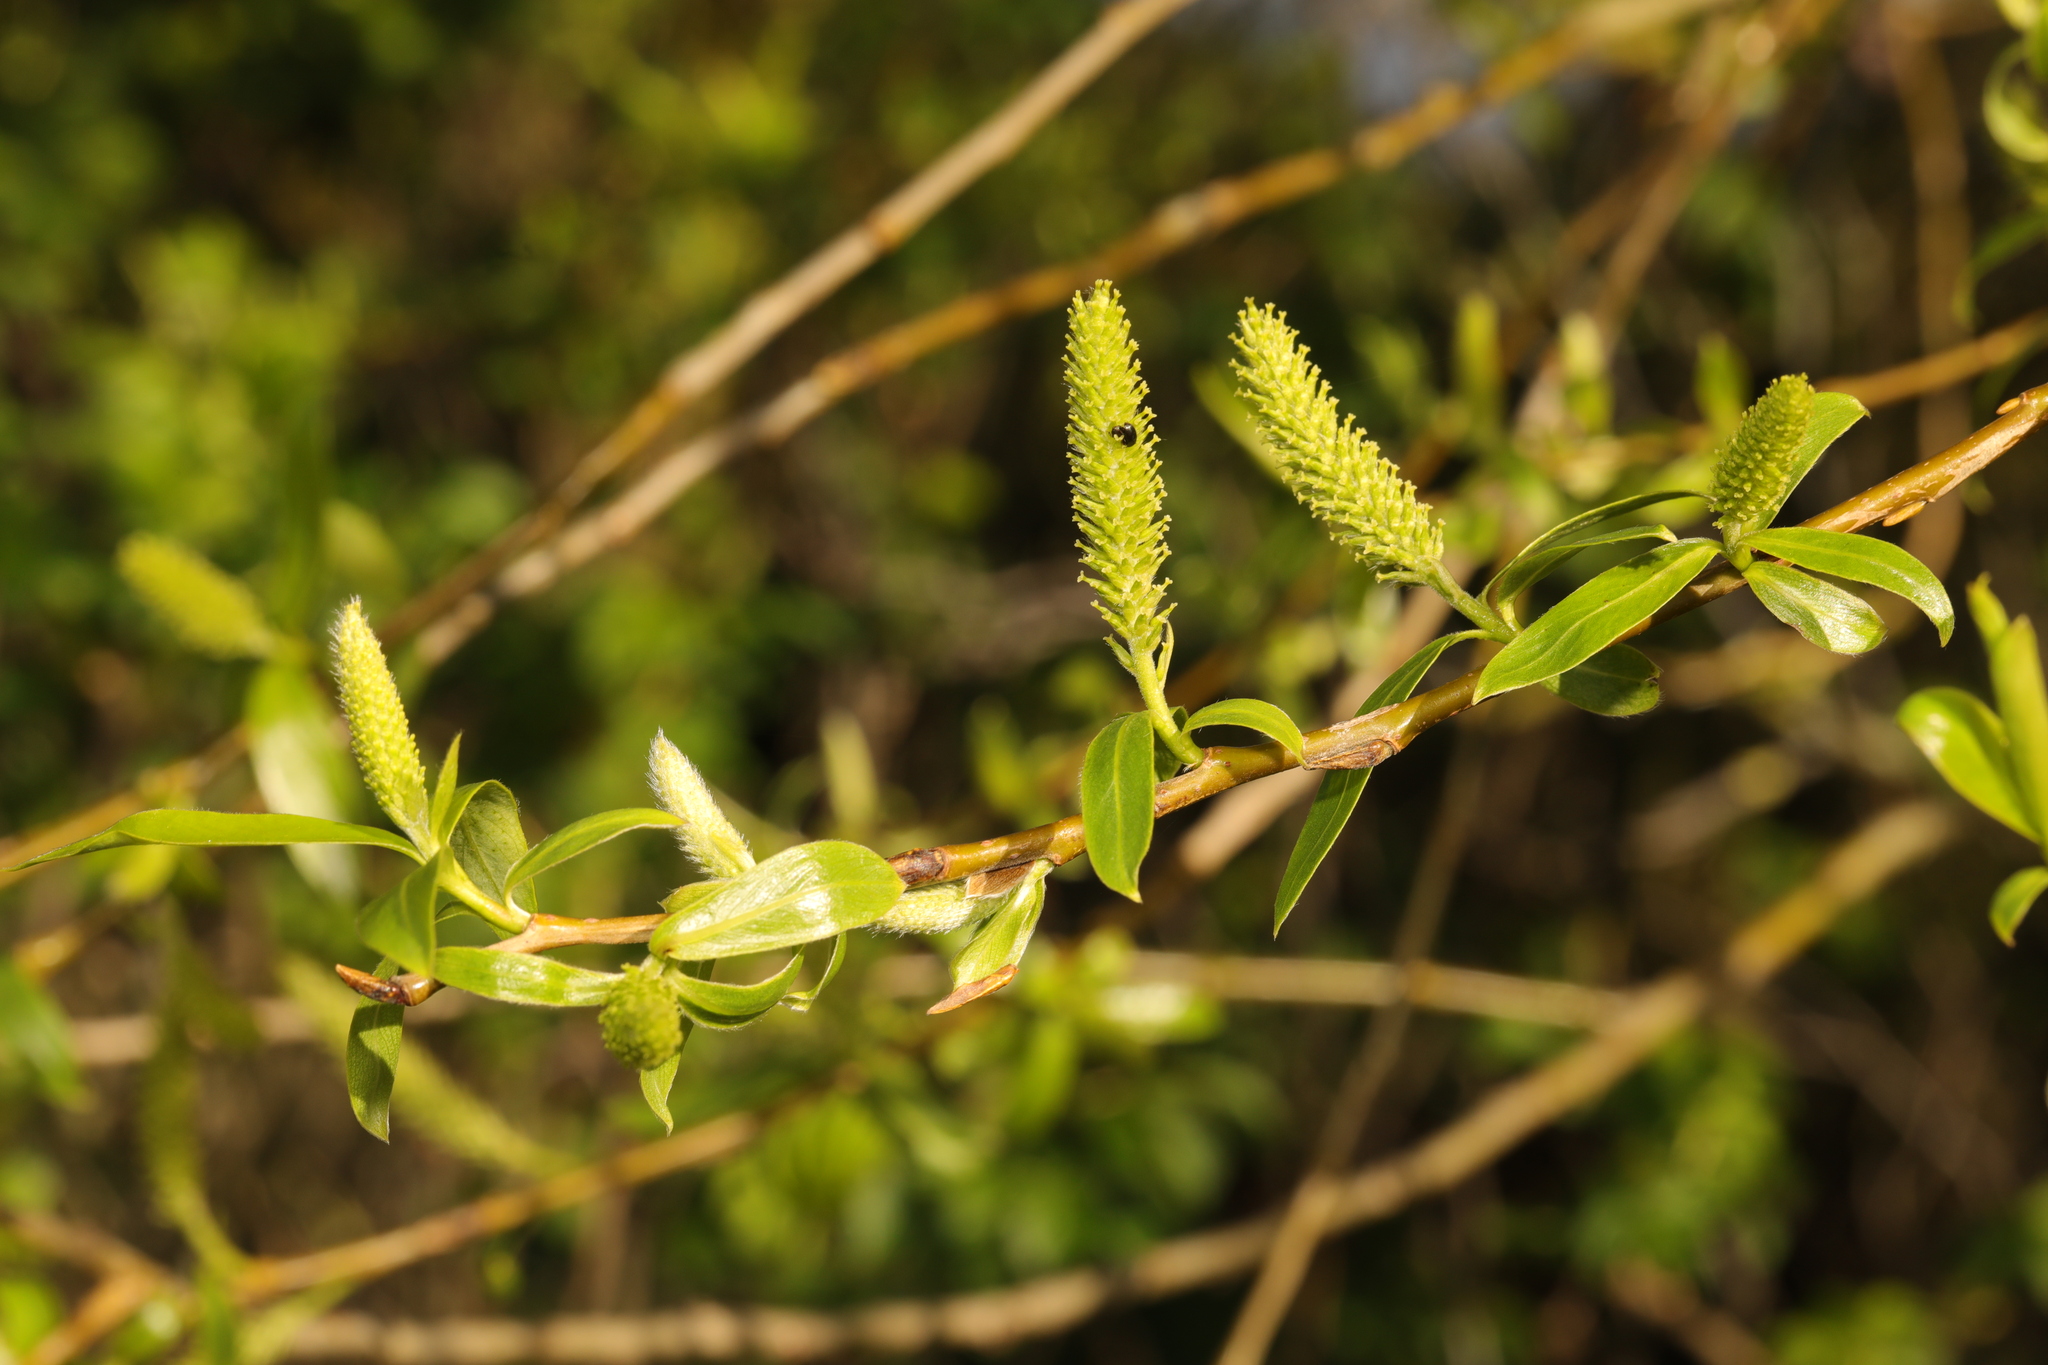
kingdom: Plantae
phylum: Tracheophyta
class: Magnoliopsida
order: Malpighiales
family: Salicaceae
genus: Salix
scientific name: Salix fragilis
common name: Crack willow
